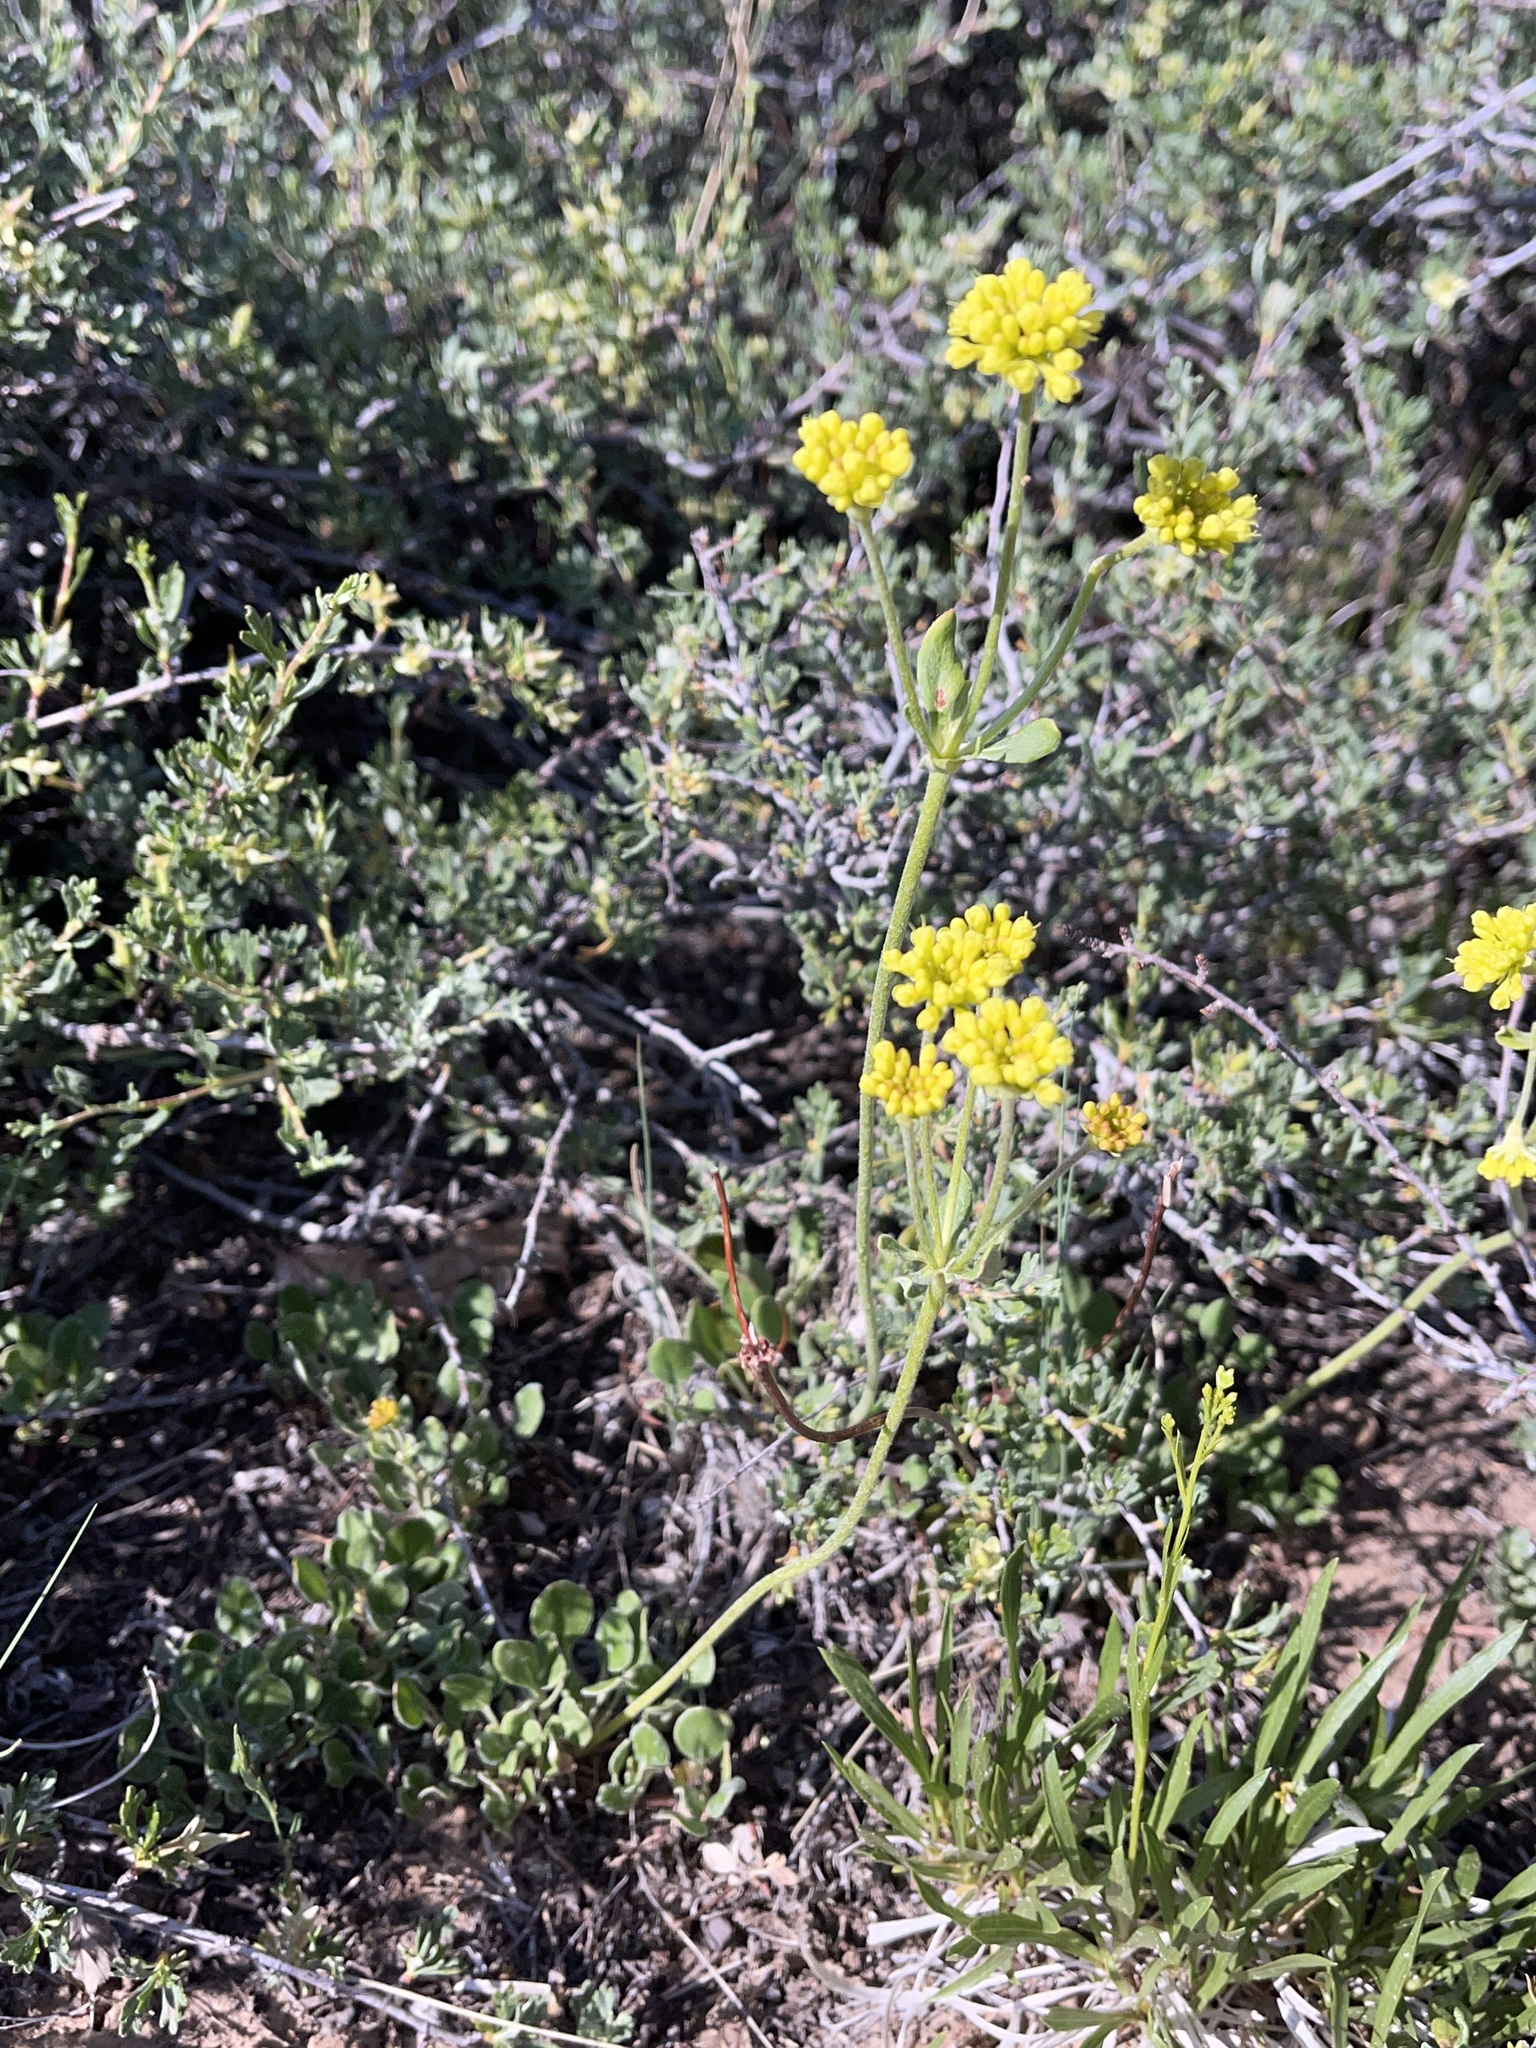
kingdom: Plantae
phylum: Tracheophyta
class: Magnoliopsida
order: Caryophyllales
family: Polygonaceae
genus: Eriogonum
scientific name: Eriogonum umbellatum
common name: Sulfur-buckwheat
